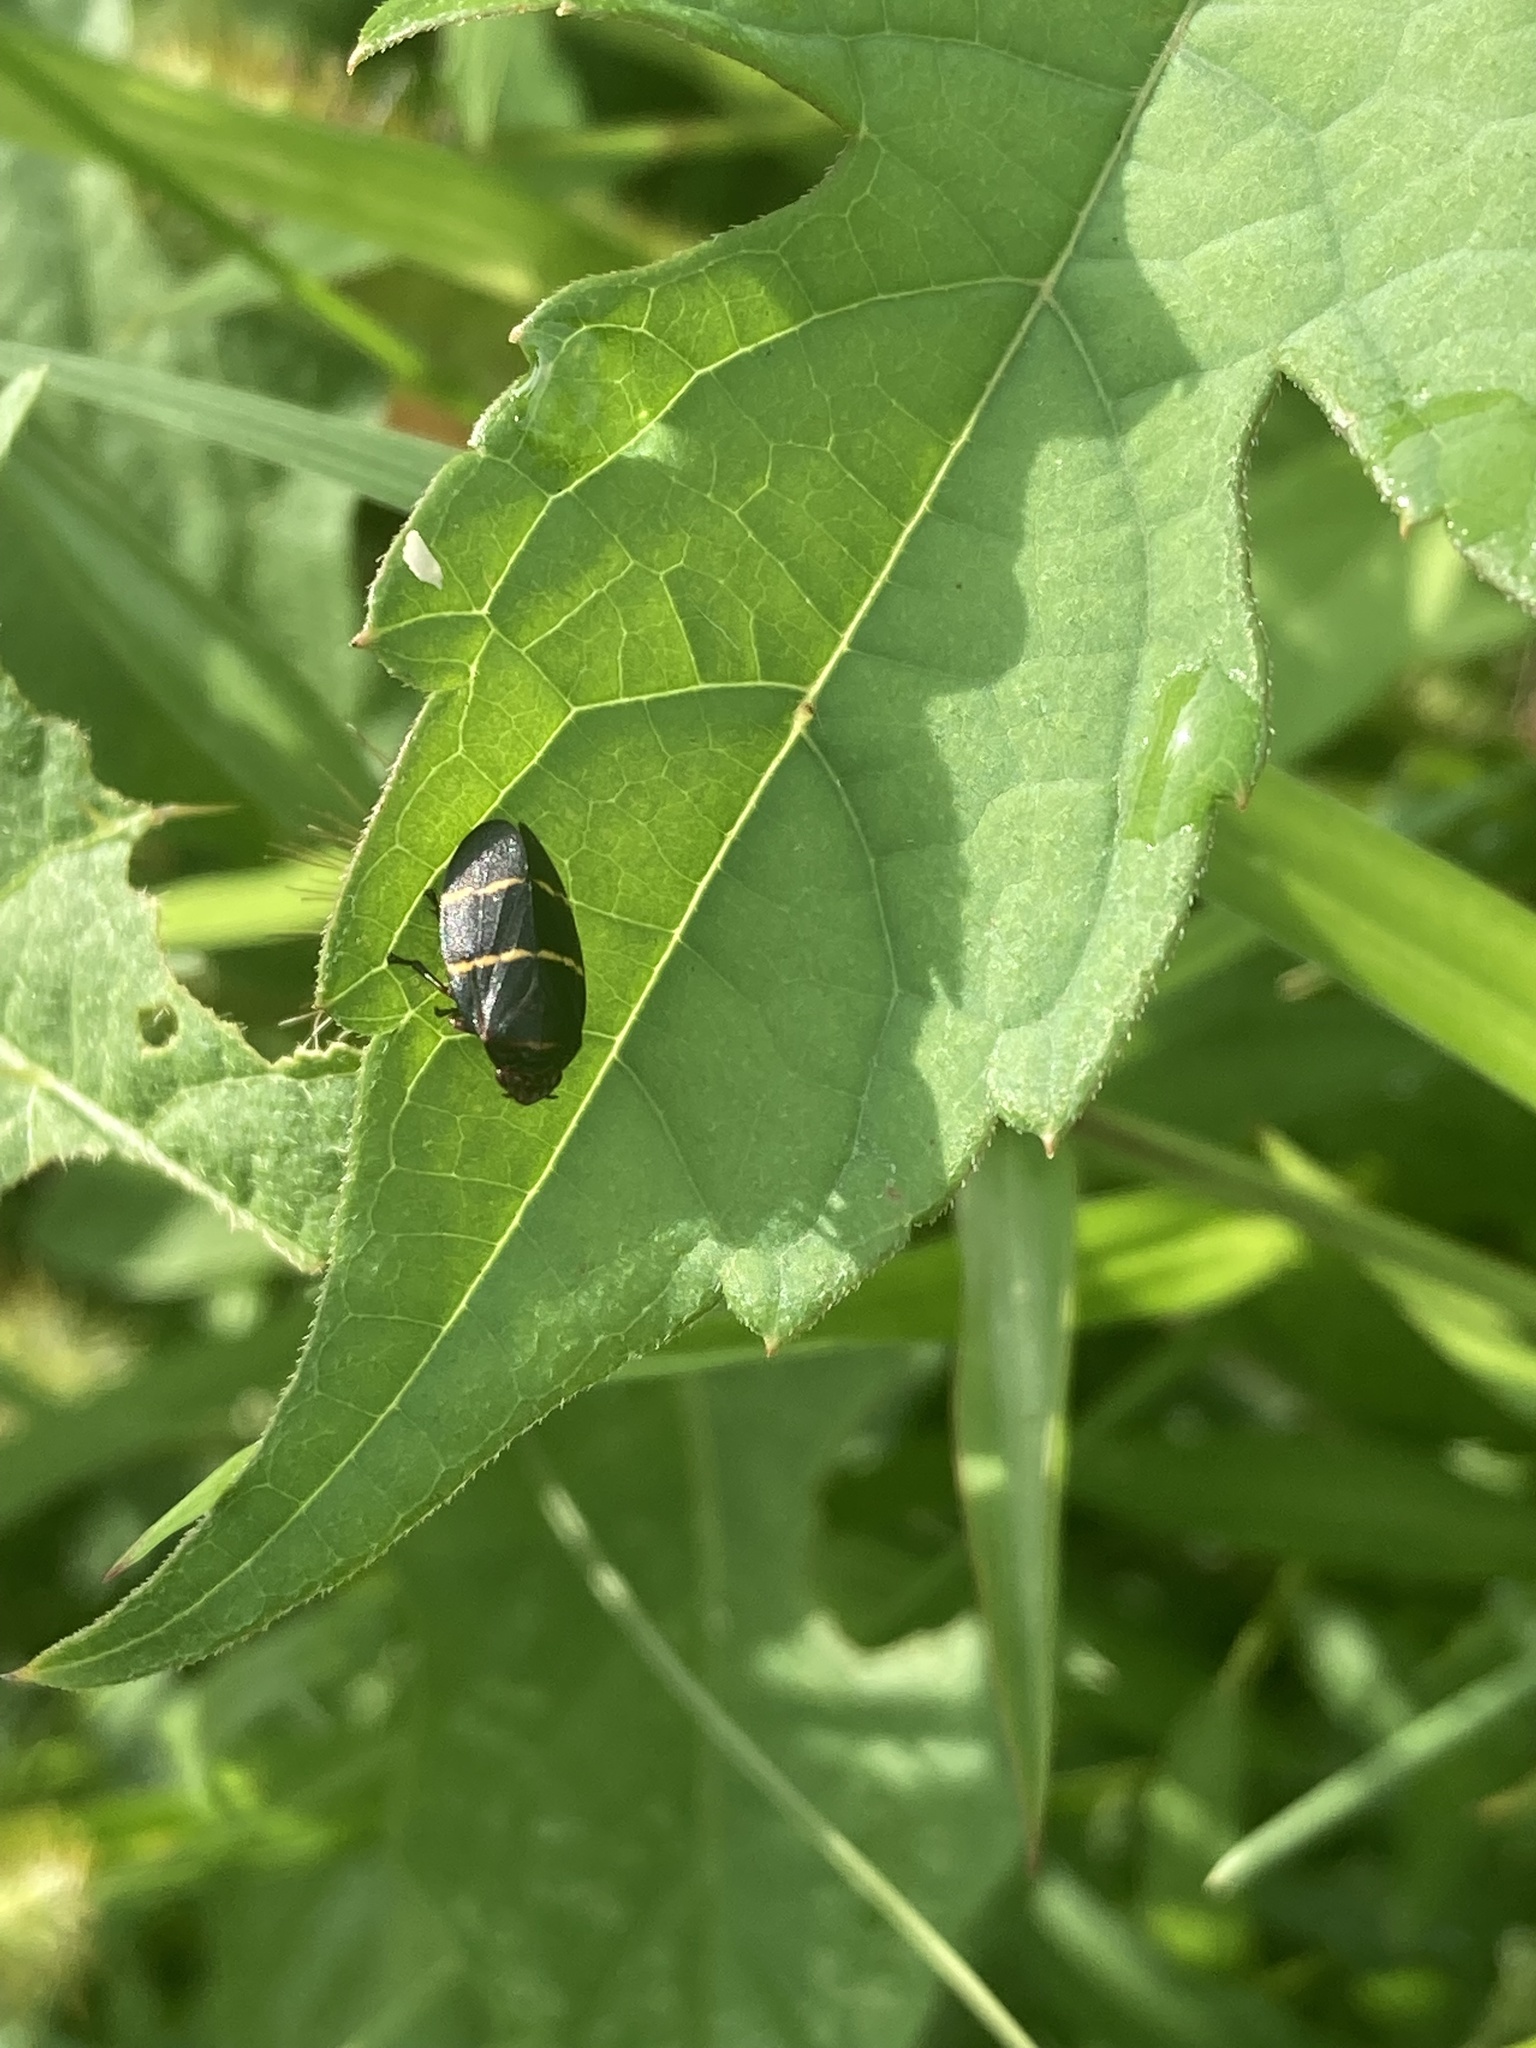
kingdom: Animalia
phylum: Arthropoda
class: Insecta
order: Hemiptera
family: Cercopidae
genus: Prosapia
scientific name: Prosapia bicincta
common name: Twolined spittlebug
